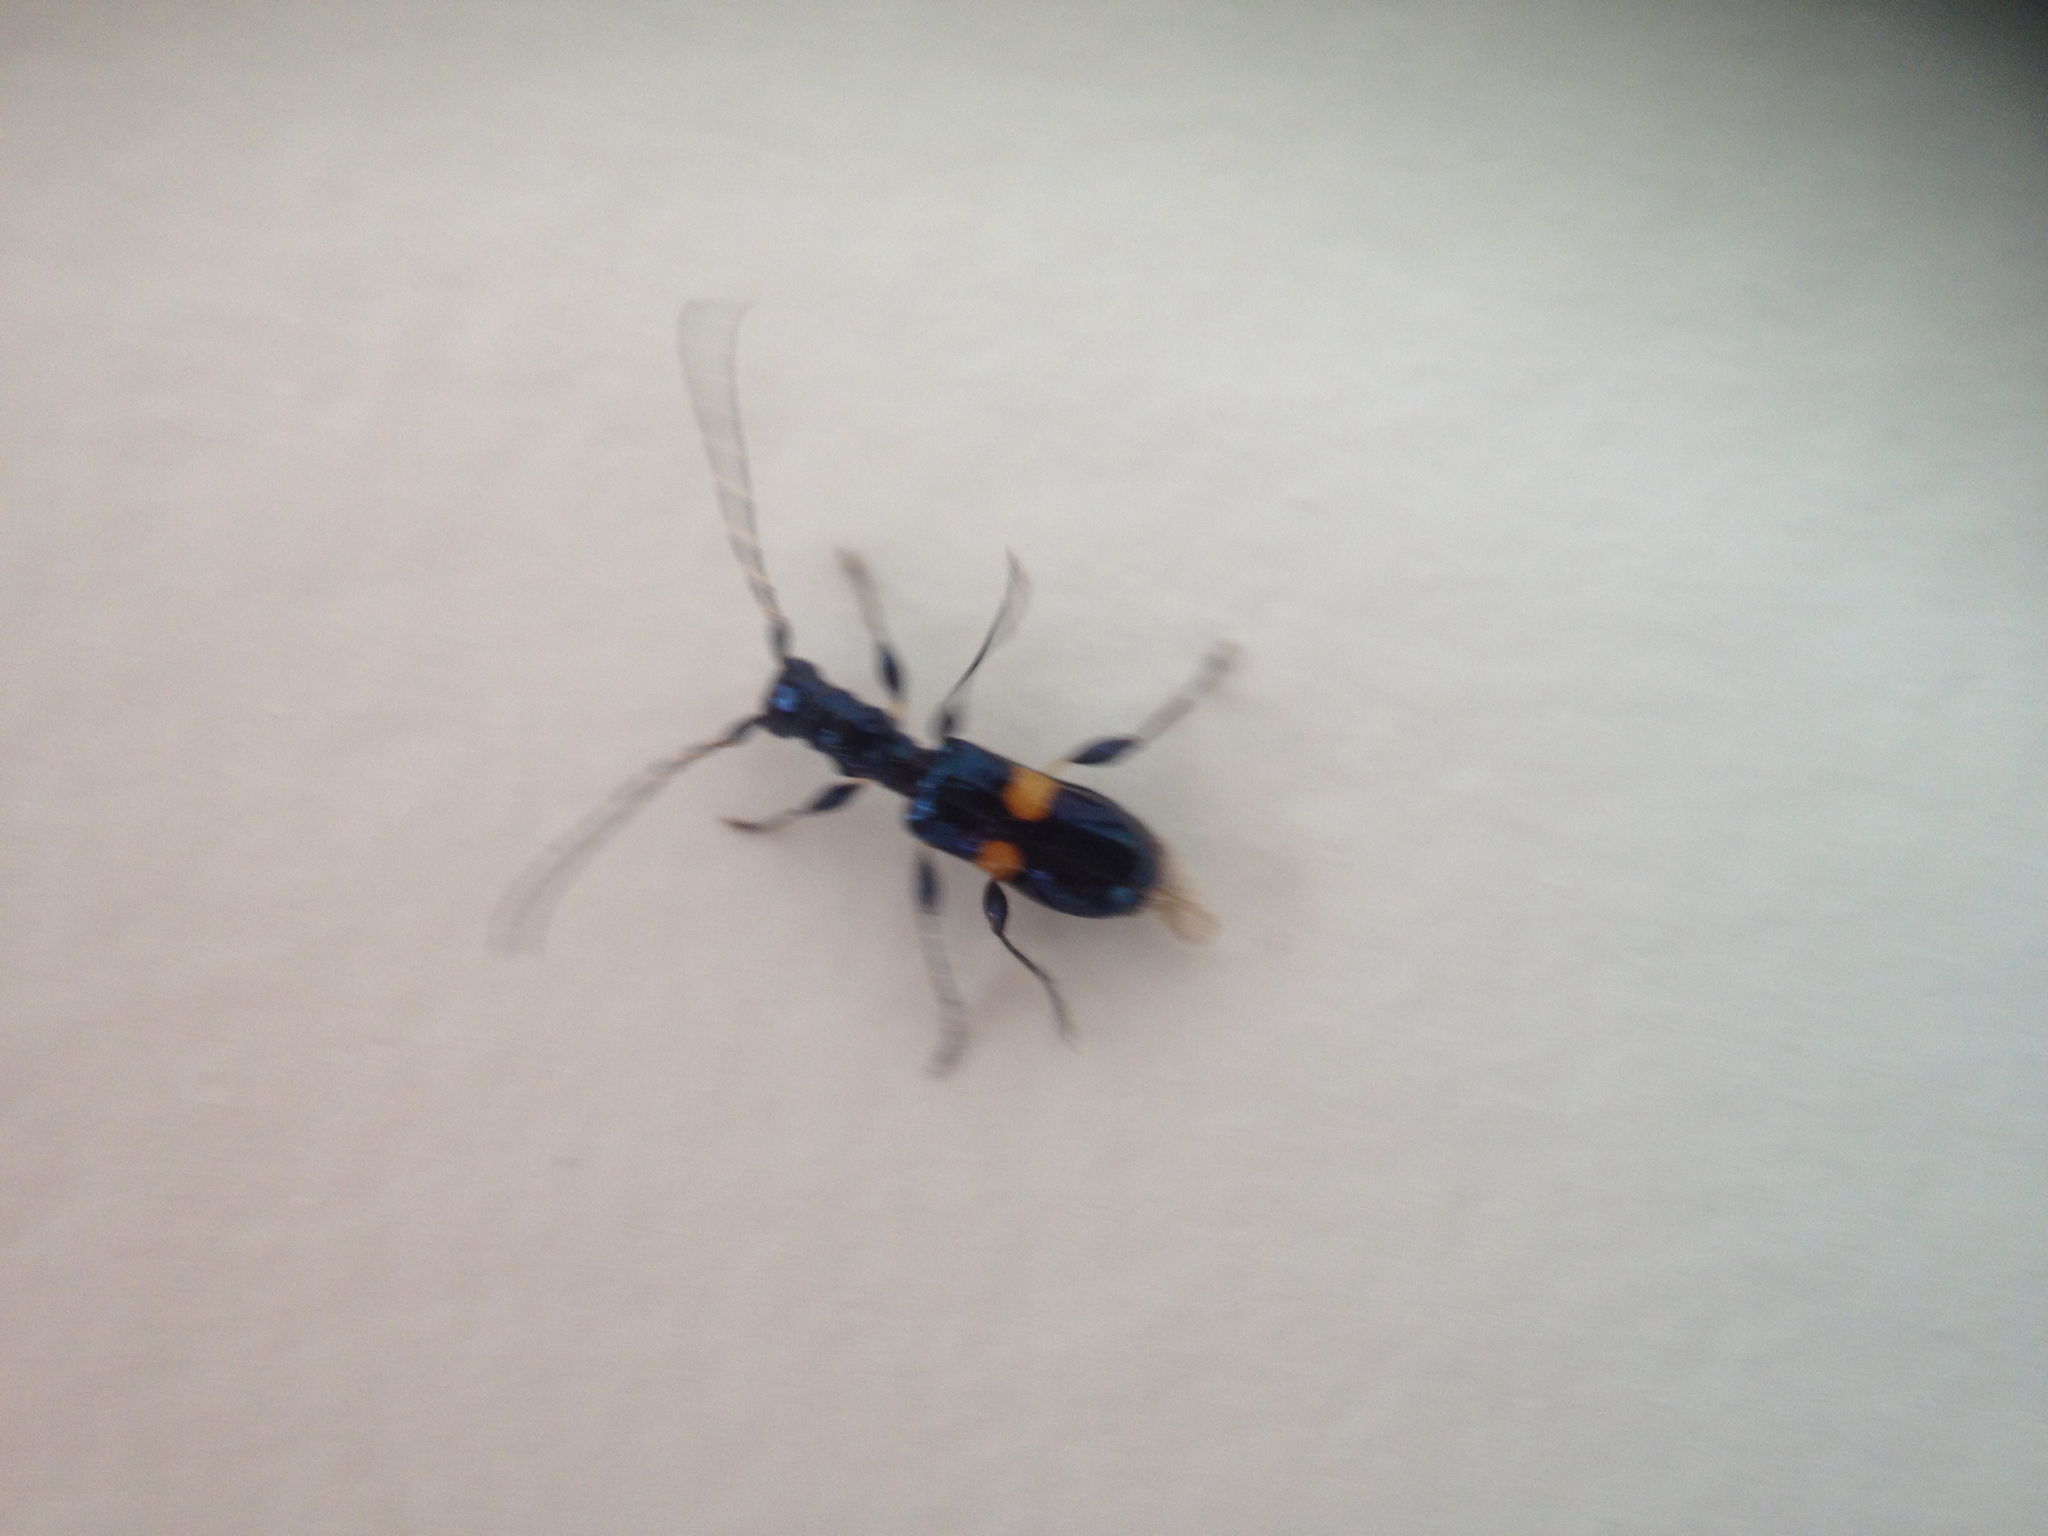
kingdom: Animalia
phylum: Arthropoda
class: Insecta
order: Coleoptera
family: Cerambycidae
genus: Zorion
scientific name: Zorion guttigerum
